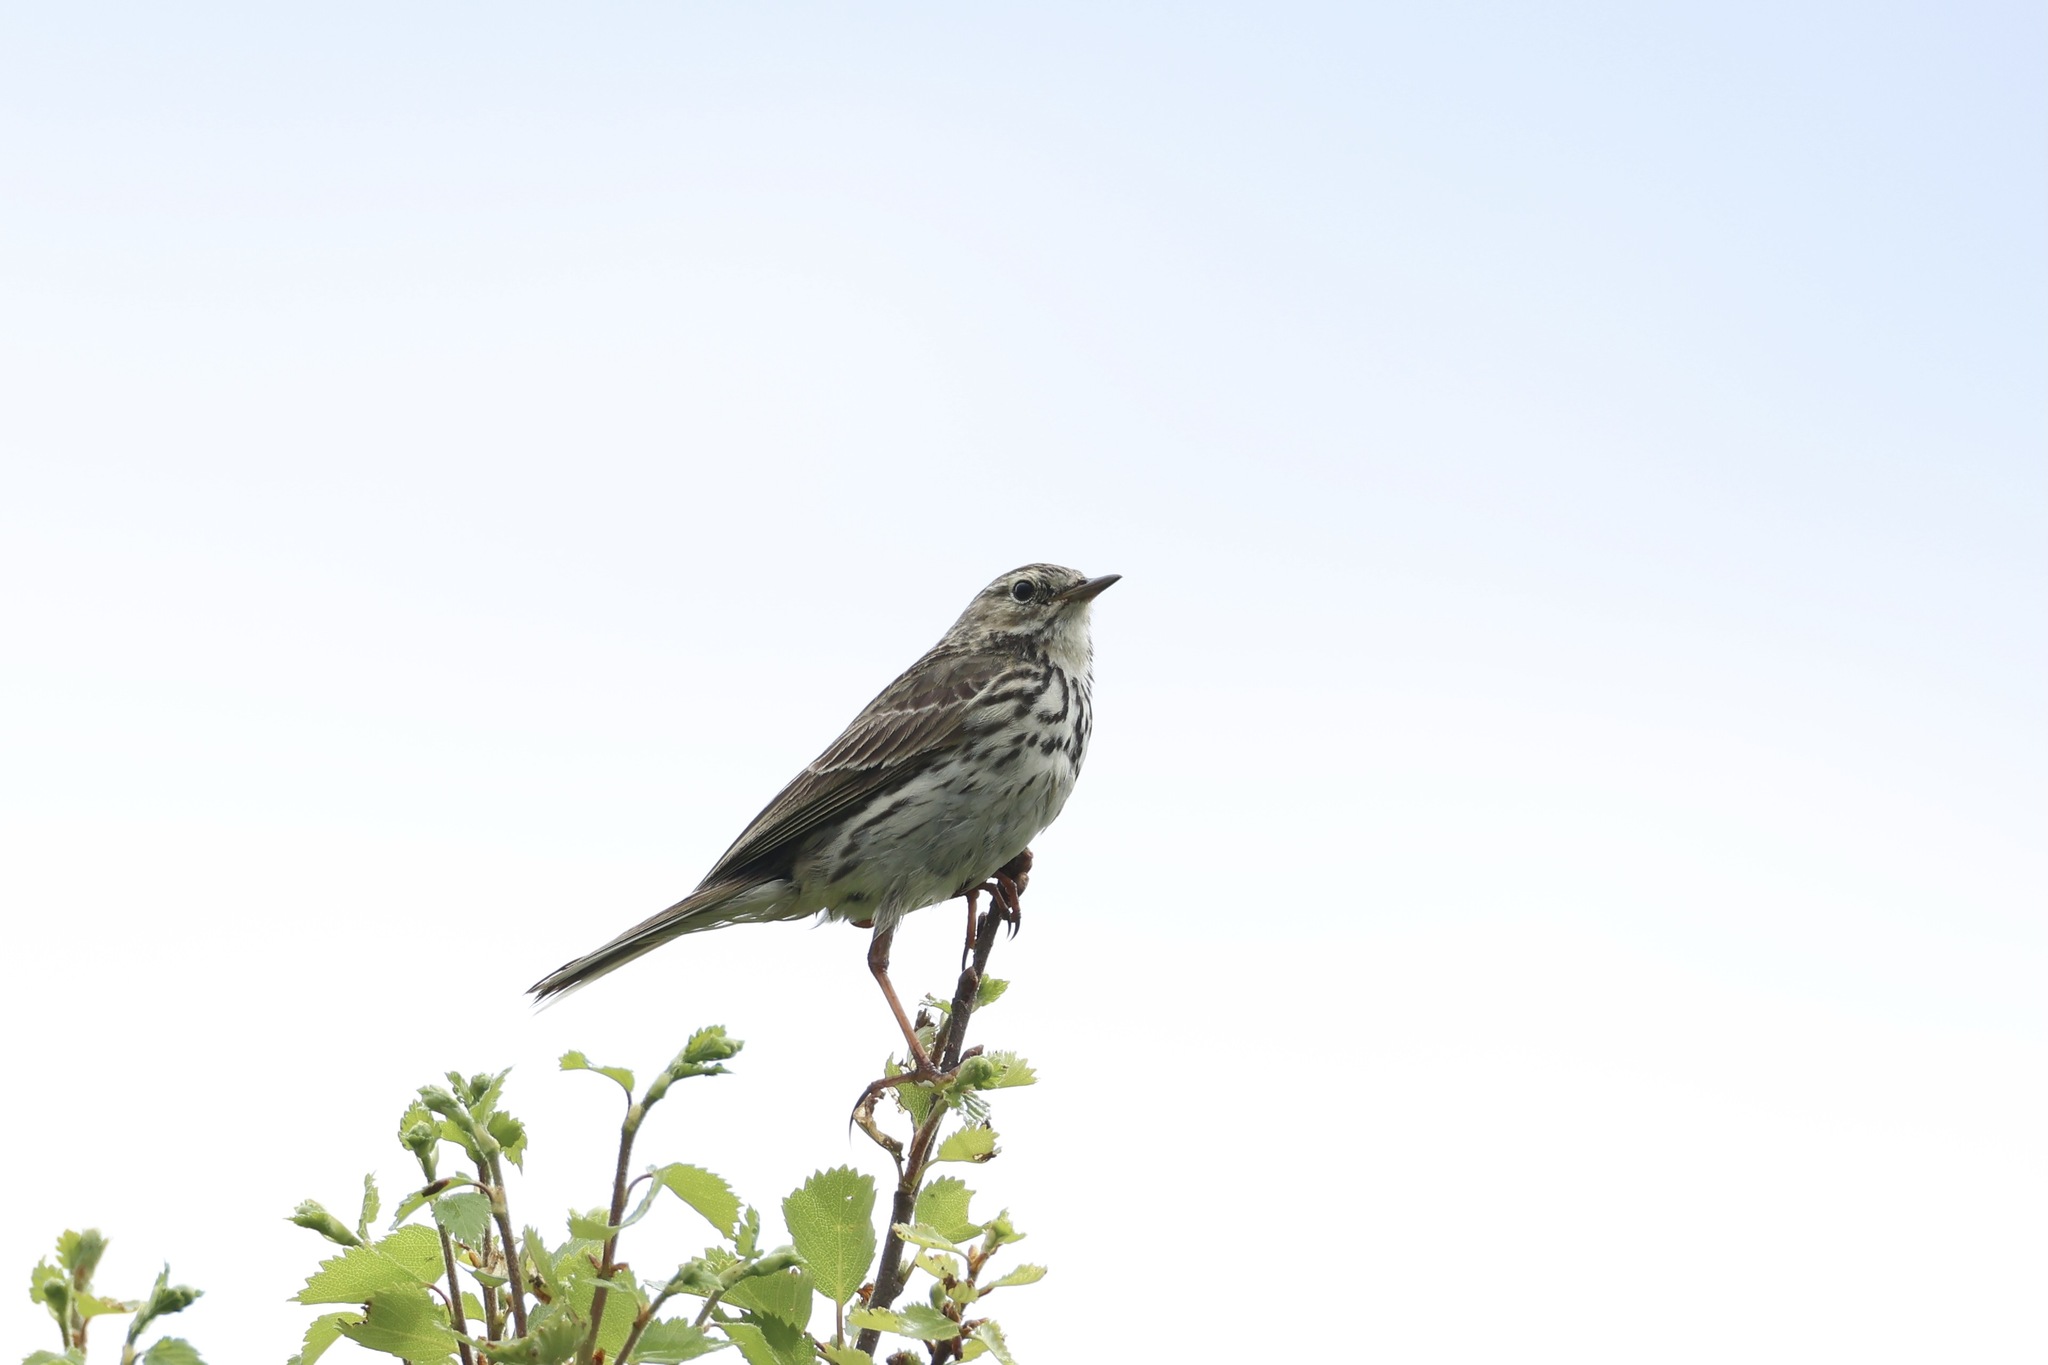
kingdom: Animalia
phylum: Chordata
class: Aves
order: Passeriformes
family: Motacillidae
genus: Anthus
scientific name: Anthus pratensis
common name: Meadow pipit
